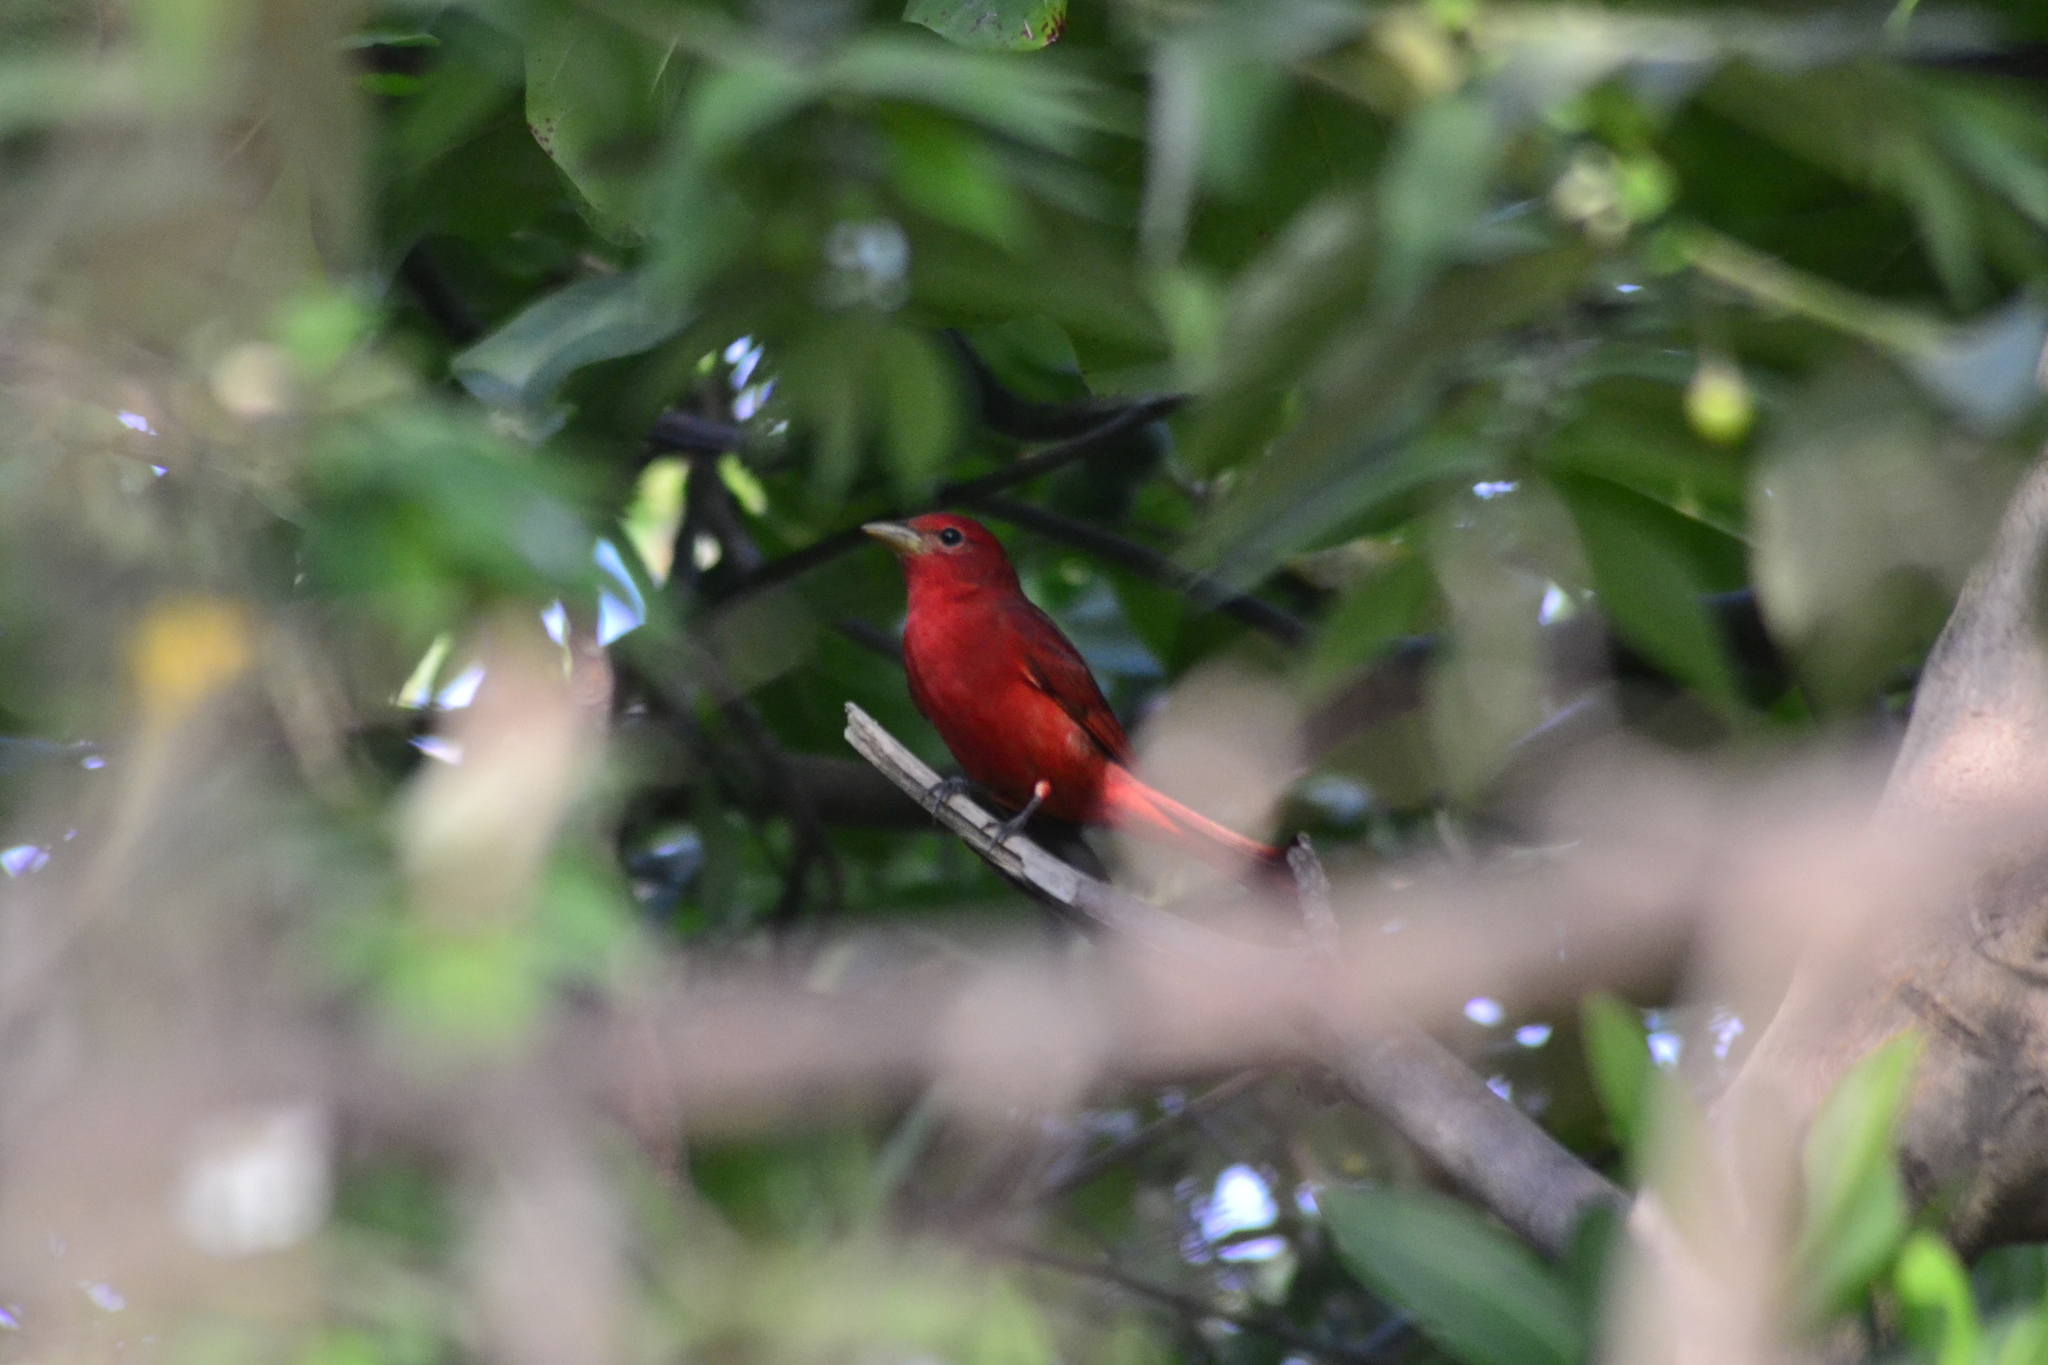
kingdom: Animalia
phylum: Chordata
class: Aves
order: Passeriformes
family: Cardinalidae
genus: Piranga
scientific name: Piranga rubra
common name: Summer tanager
